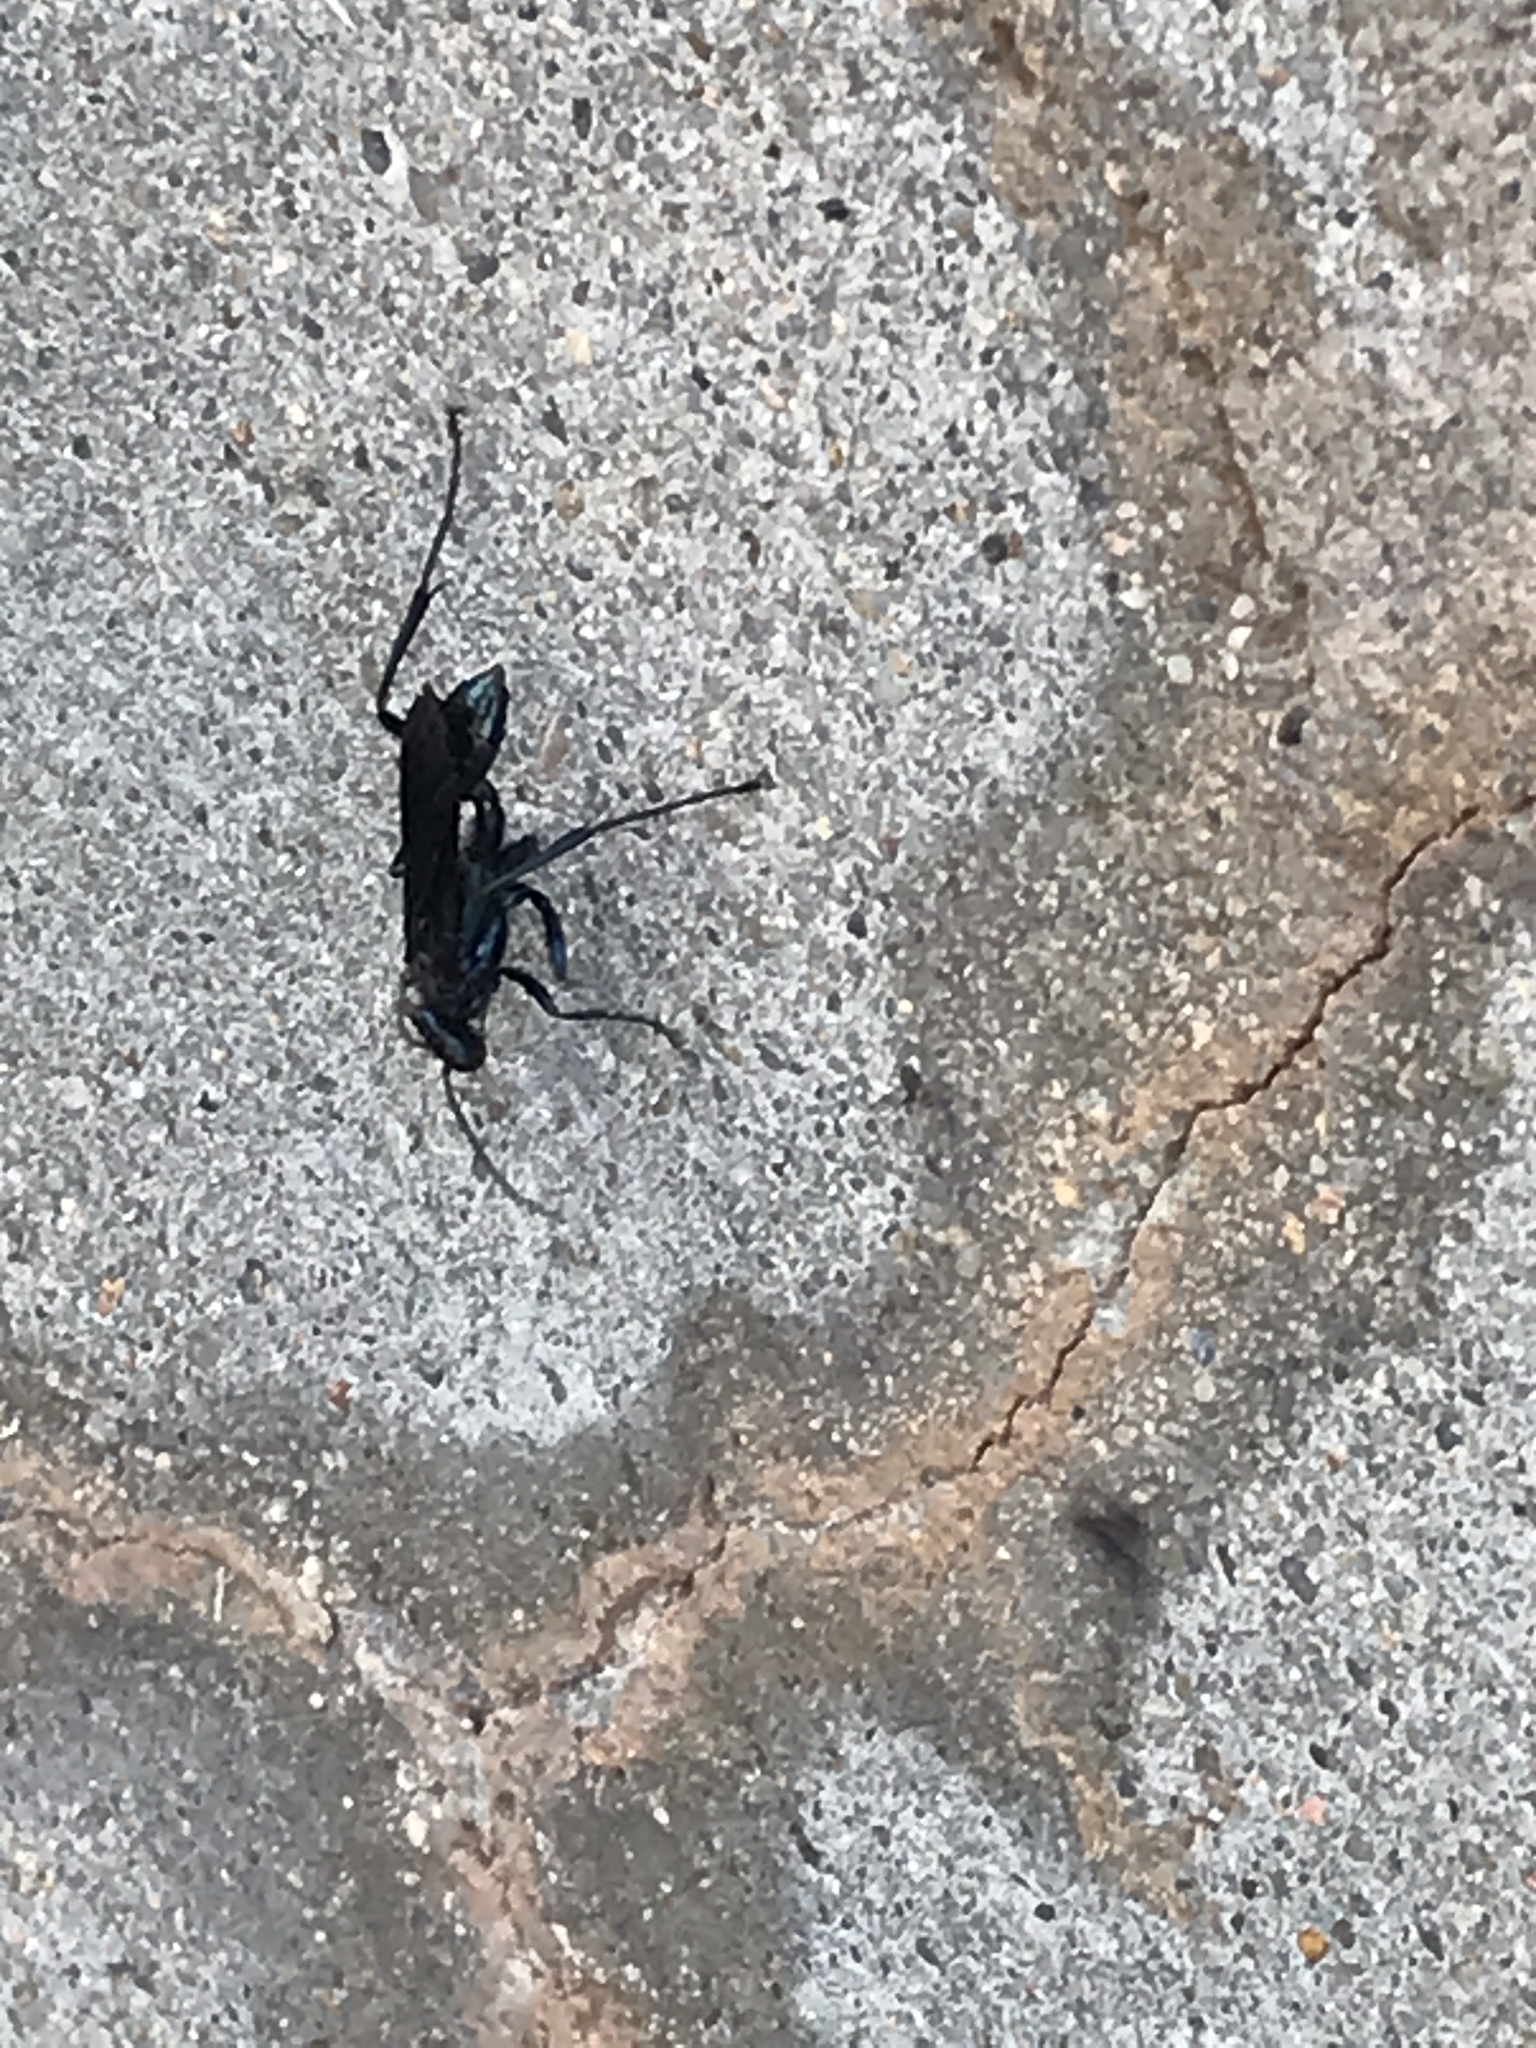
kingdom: Animalia
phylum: Arthropoda
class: Insecta
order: Hymenoptera
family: Sphecidae
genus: Chalybion
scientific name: Chalybion californicum
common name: Mud dauber
